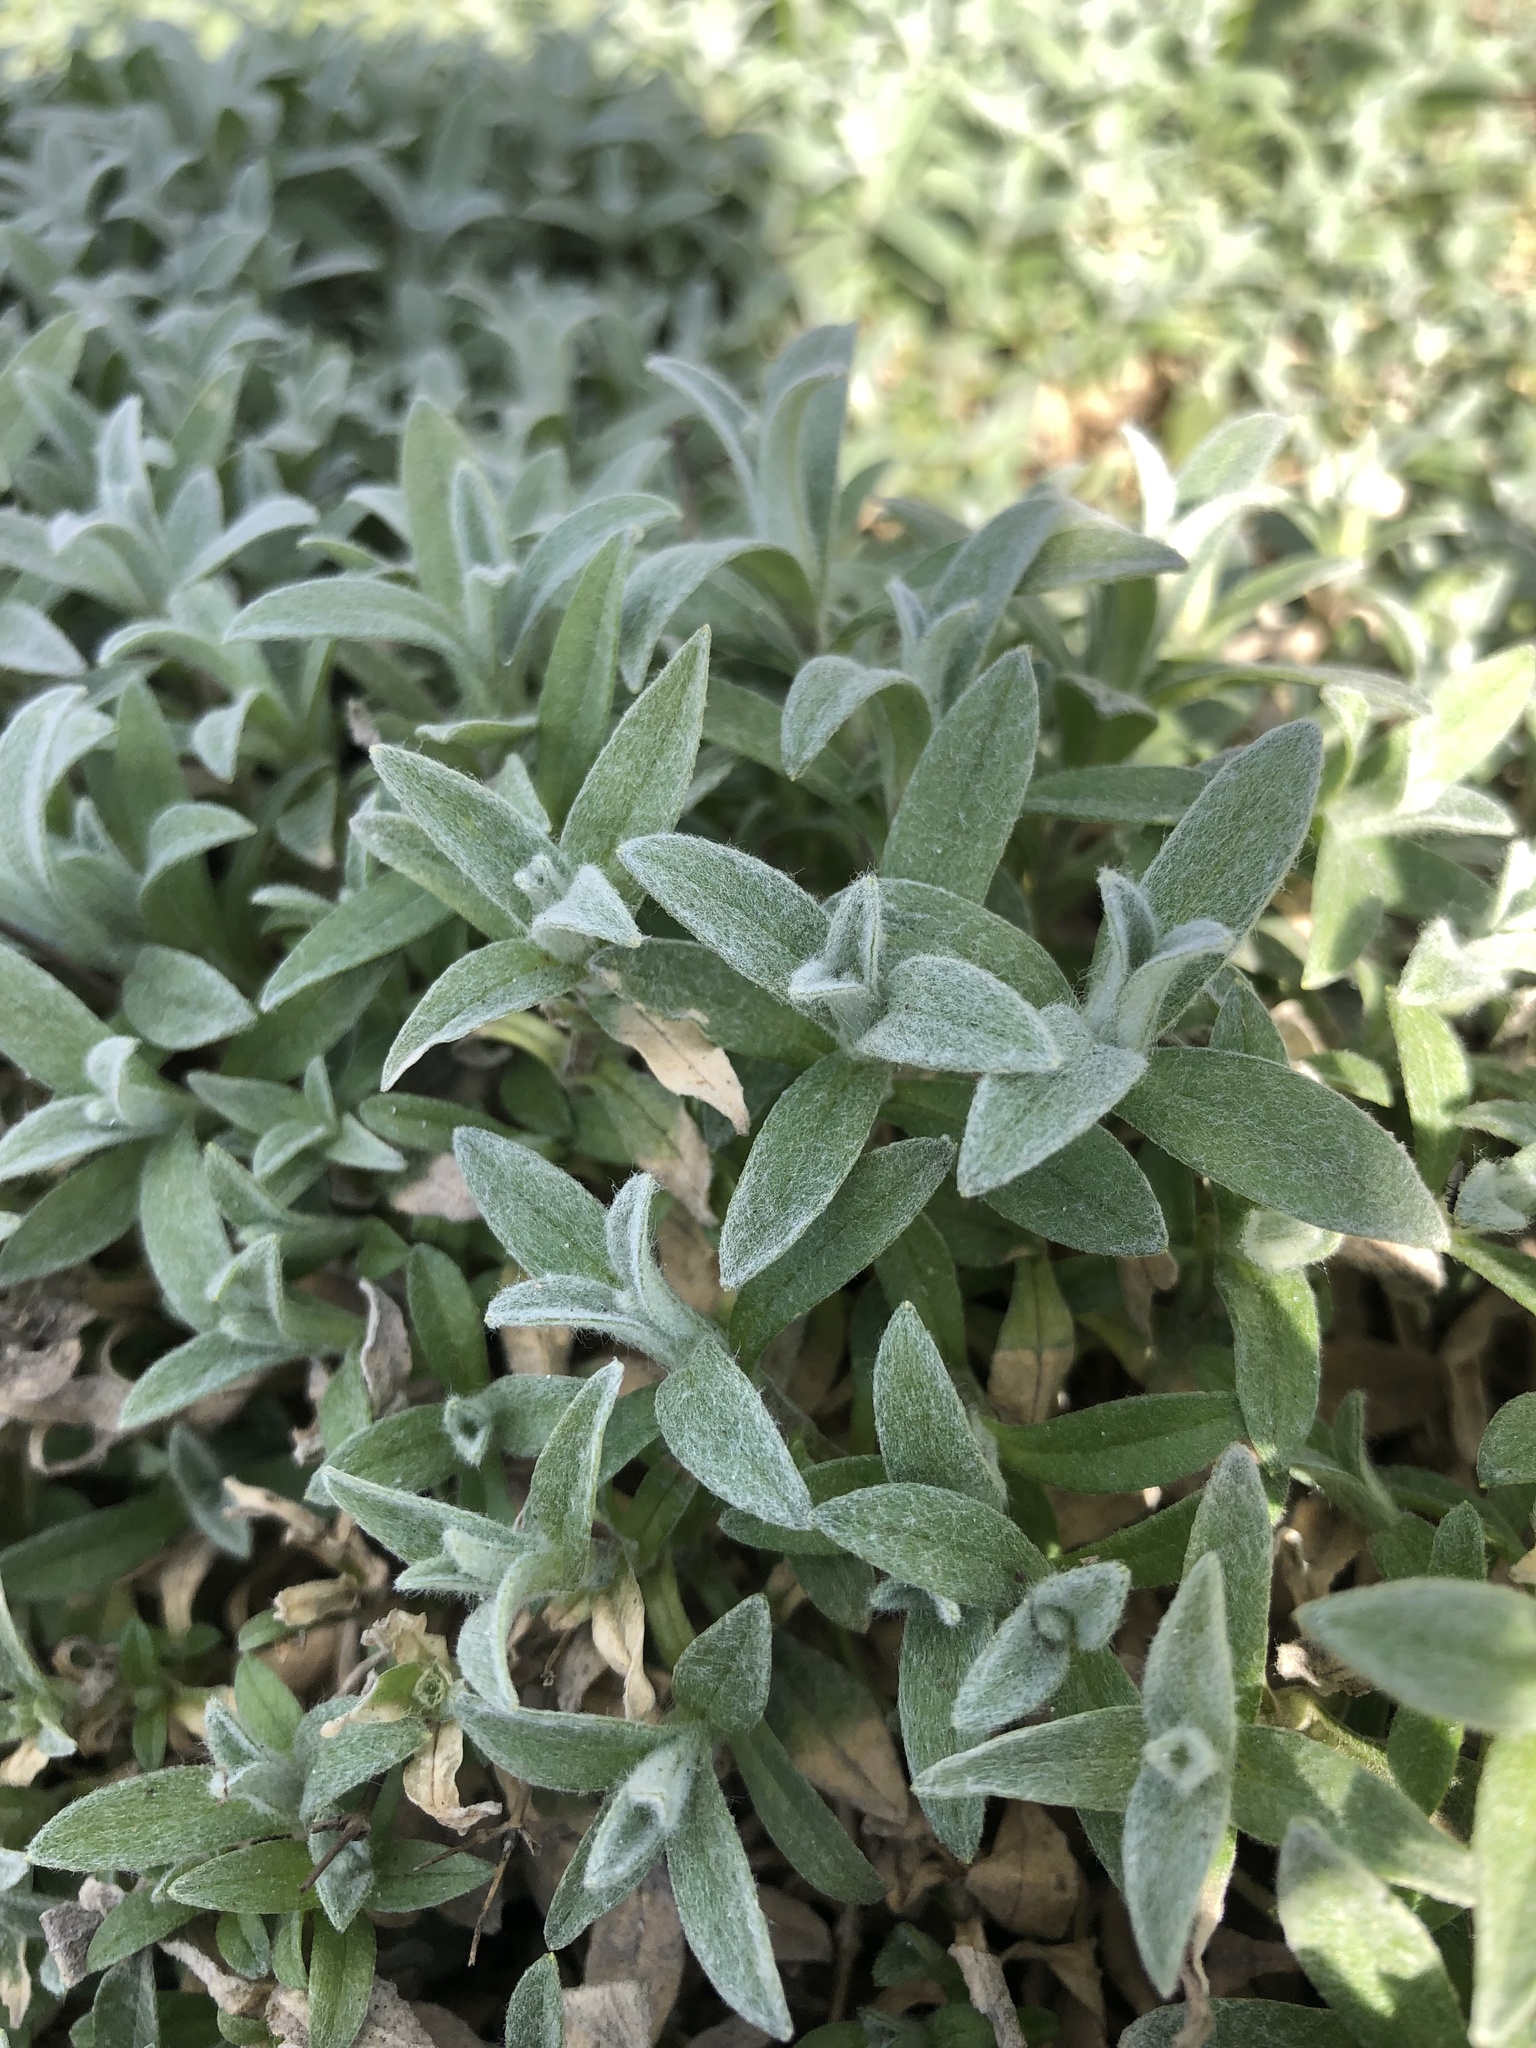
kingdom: Plantae
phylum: Tracheophyta
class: Magnoliopsida
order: Caryophyllales
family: Caryophyllaceae
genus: Cerastium
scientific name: Cerastium tomentosum
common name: Snow-in-summer
